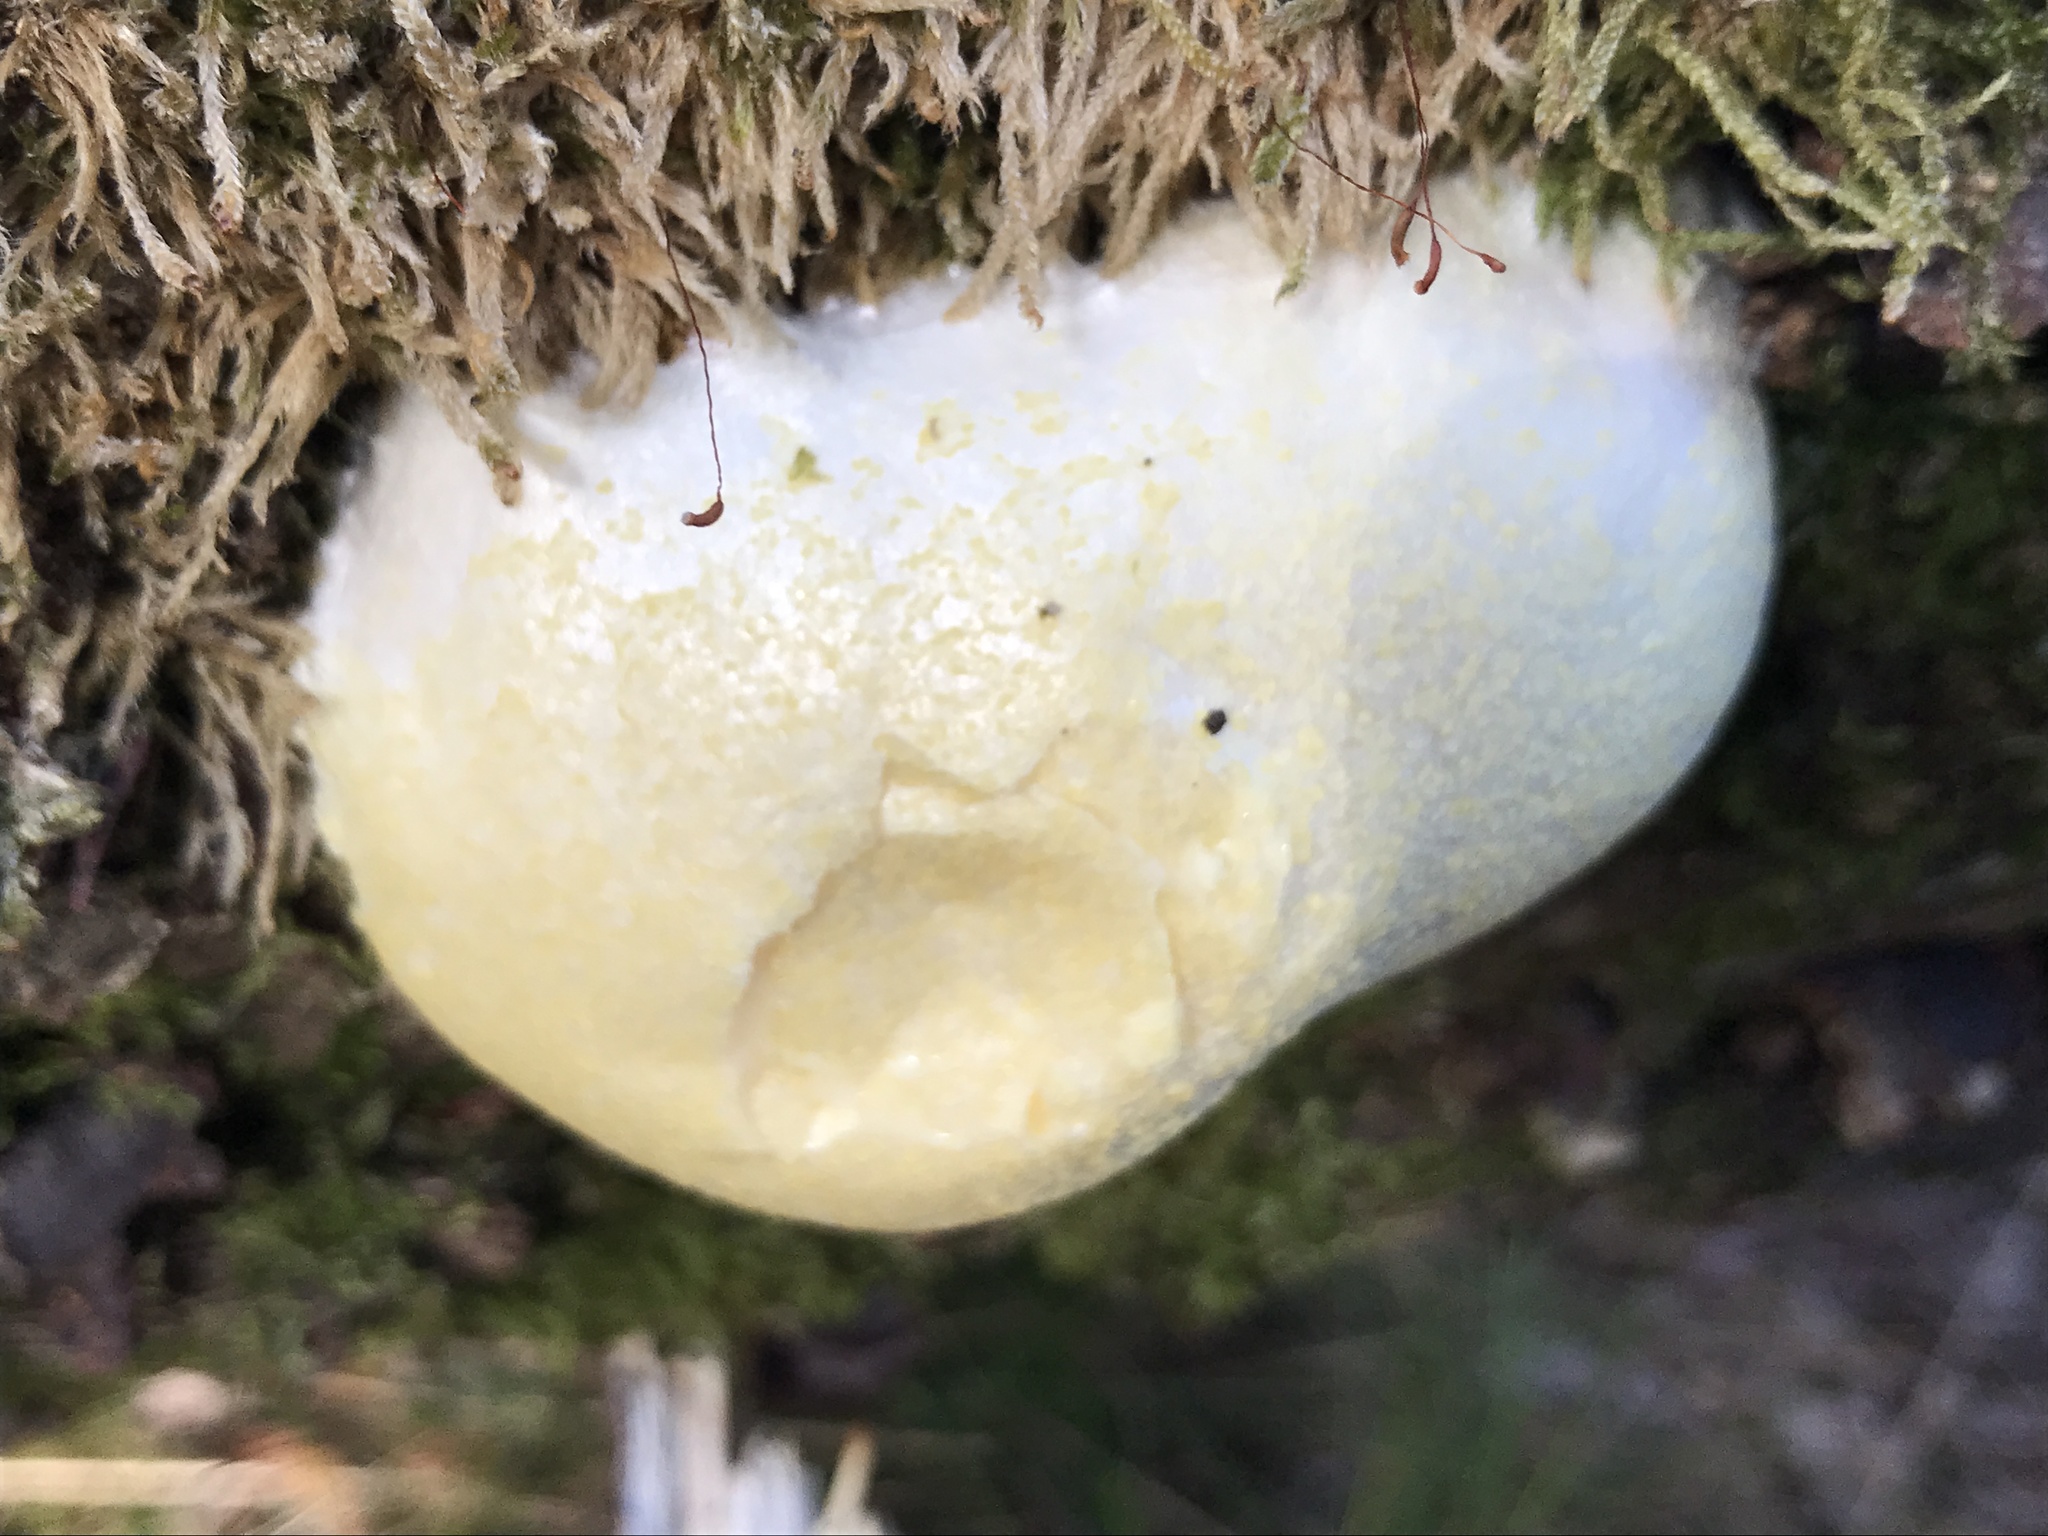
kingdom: Protozoa
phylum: Mycetozoa
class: Myxomycetes
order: Cribrariales
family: Tubiferaceae
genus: Reticularia
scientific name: Reticularia lycoperdon
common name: False puffball
